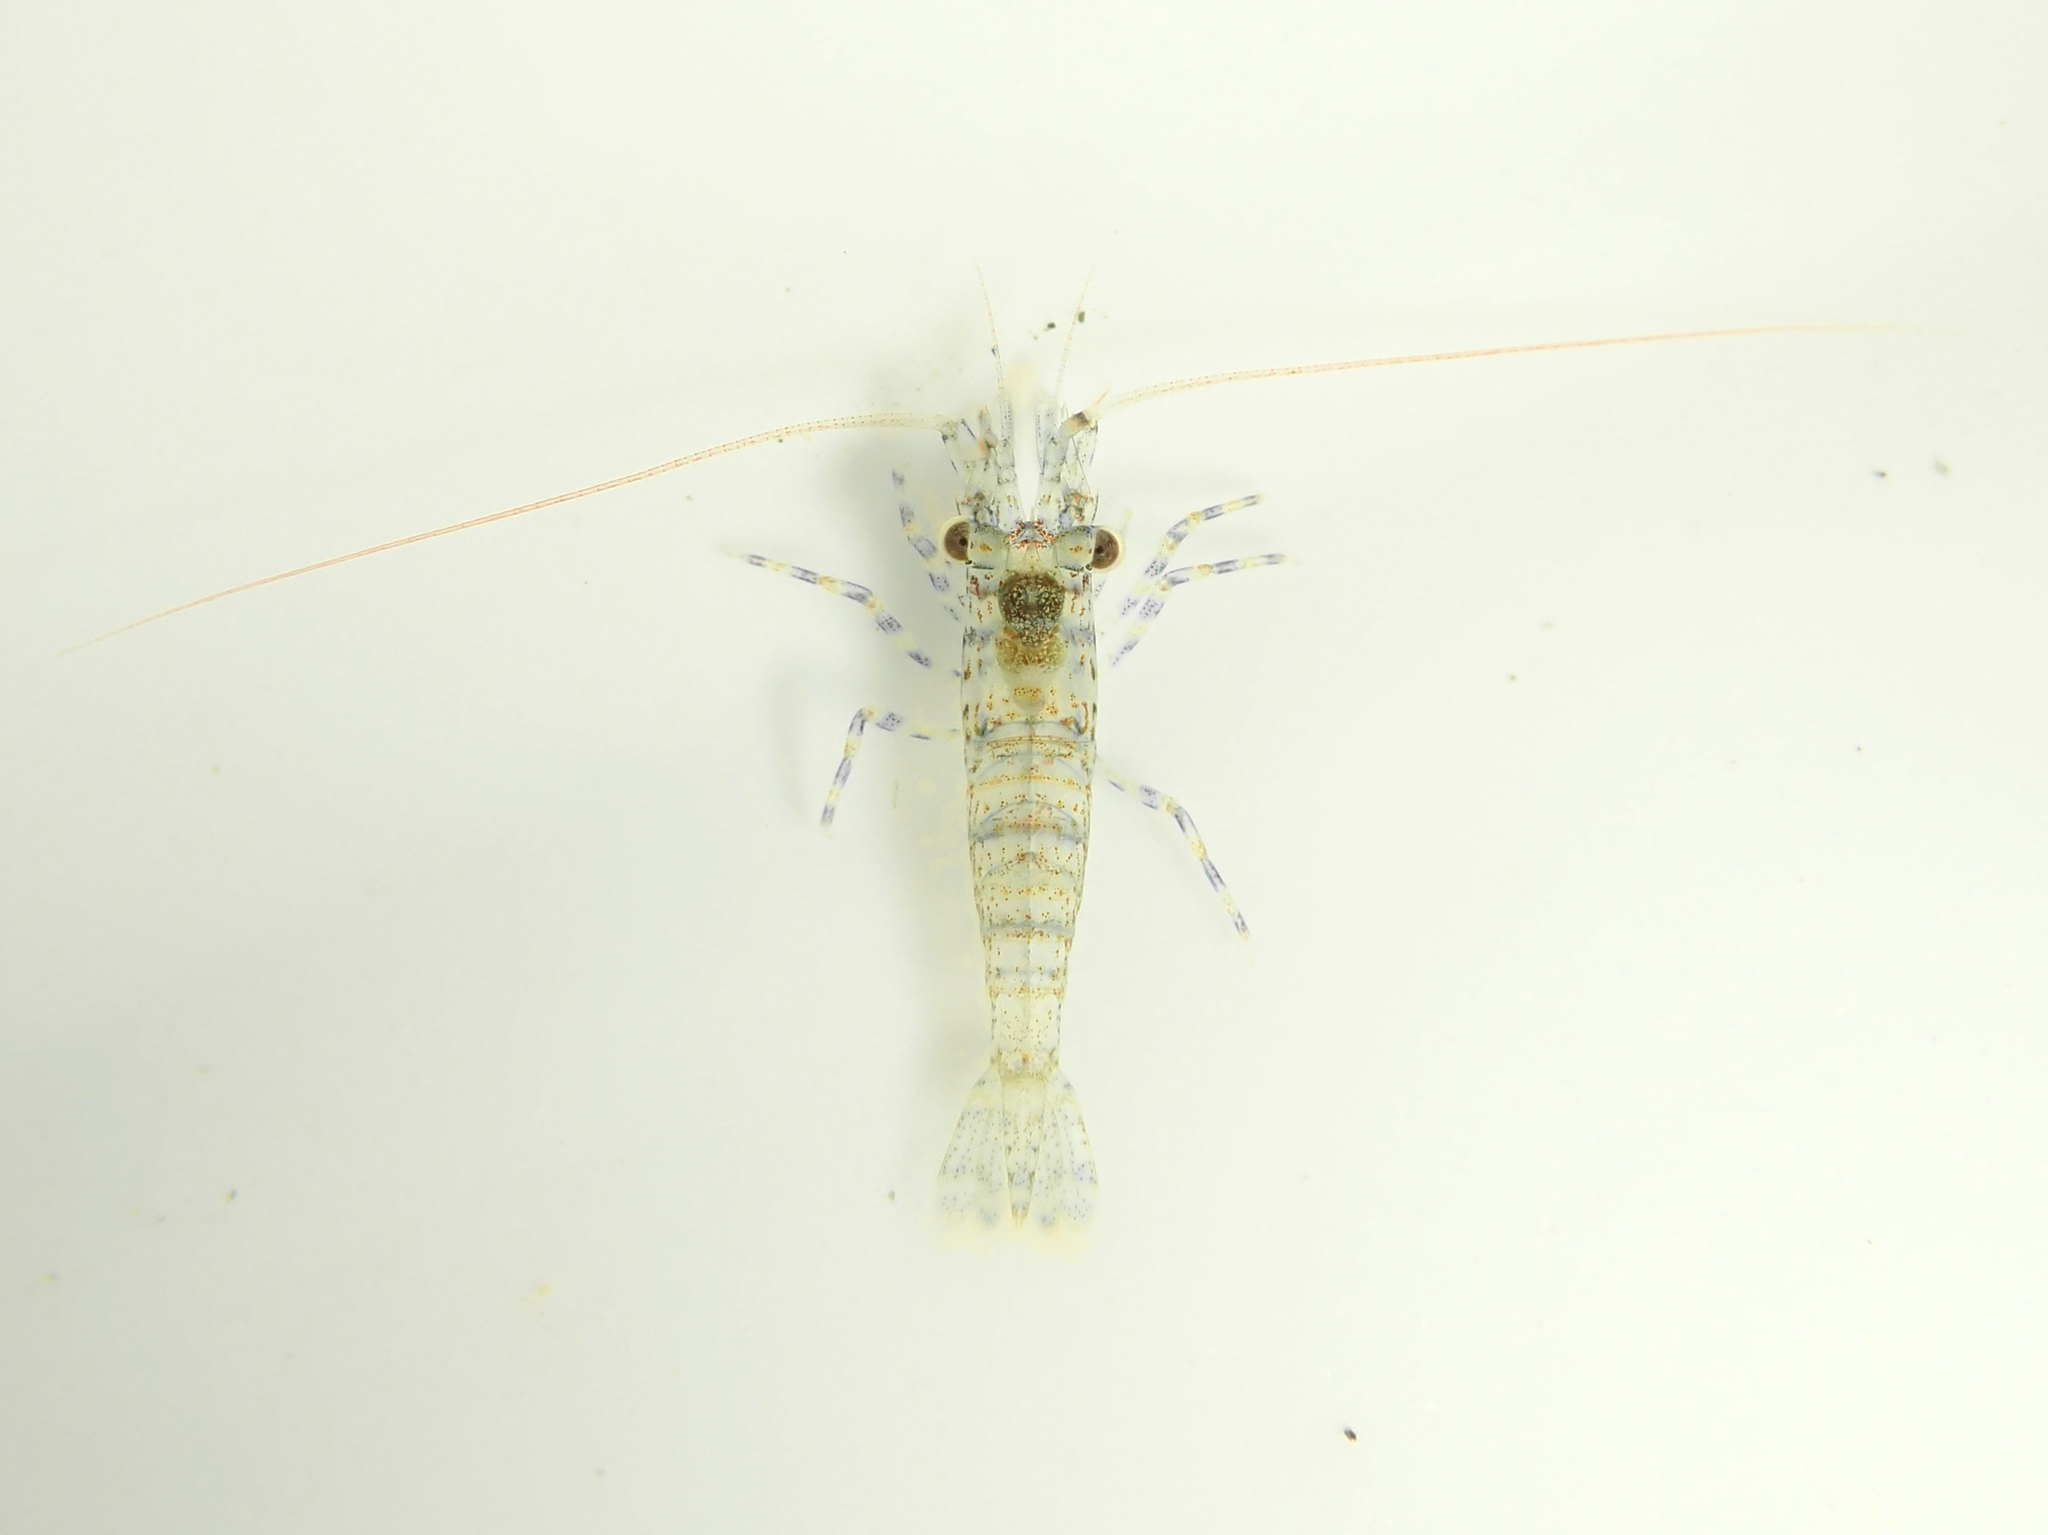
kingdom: Animalia
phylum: Arthropoda
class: Malacostraca
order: Decapoda
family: Hippolytidae
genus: Alope
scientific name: Alope spinifrons
